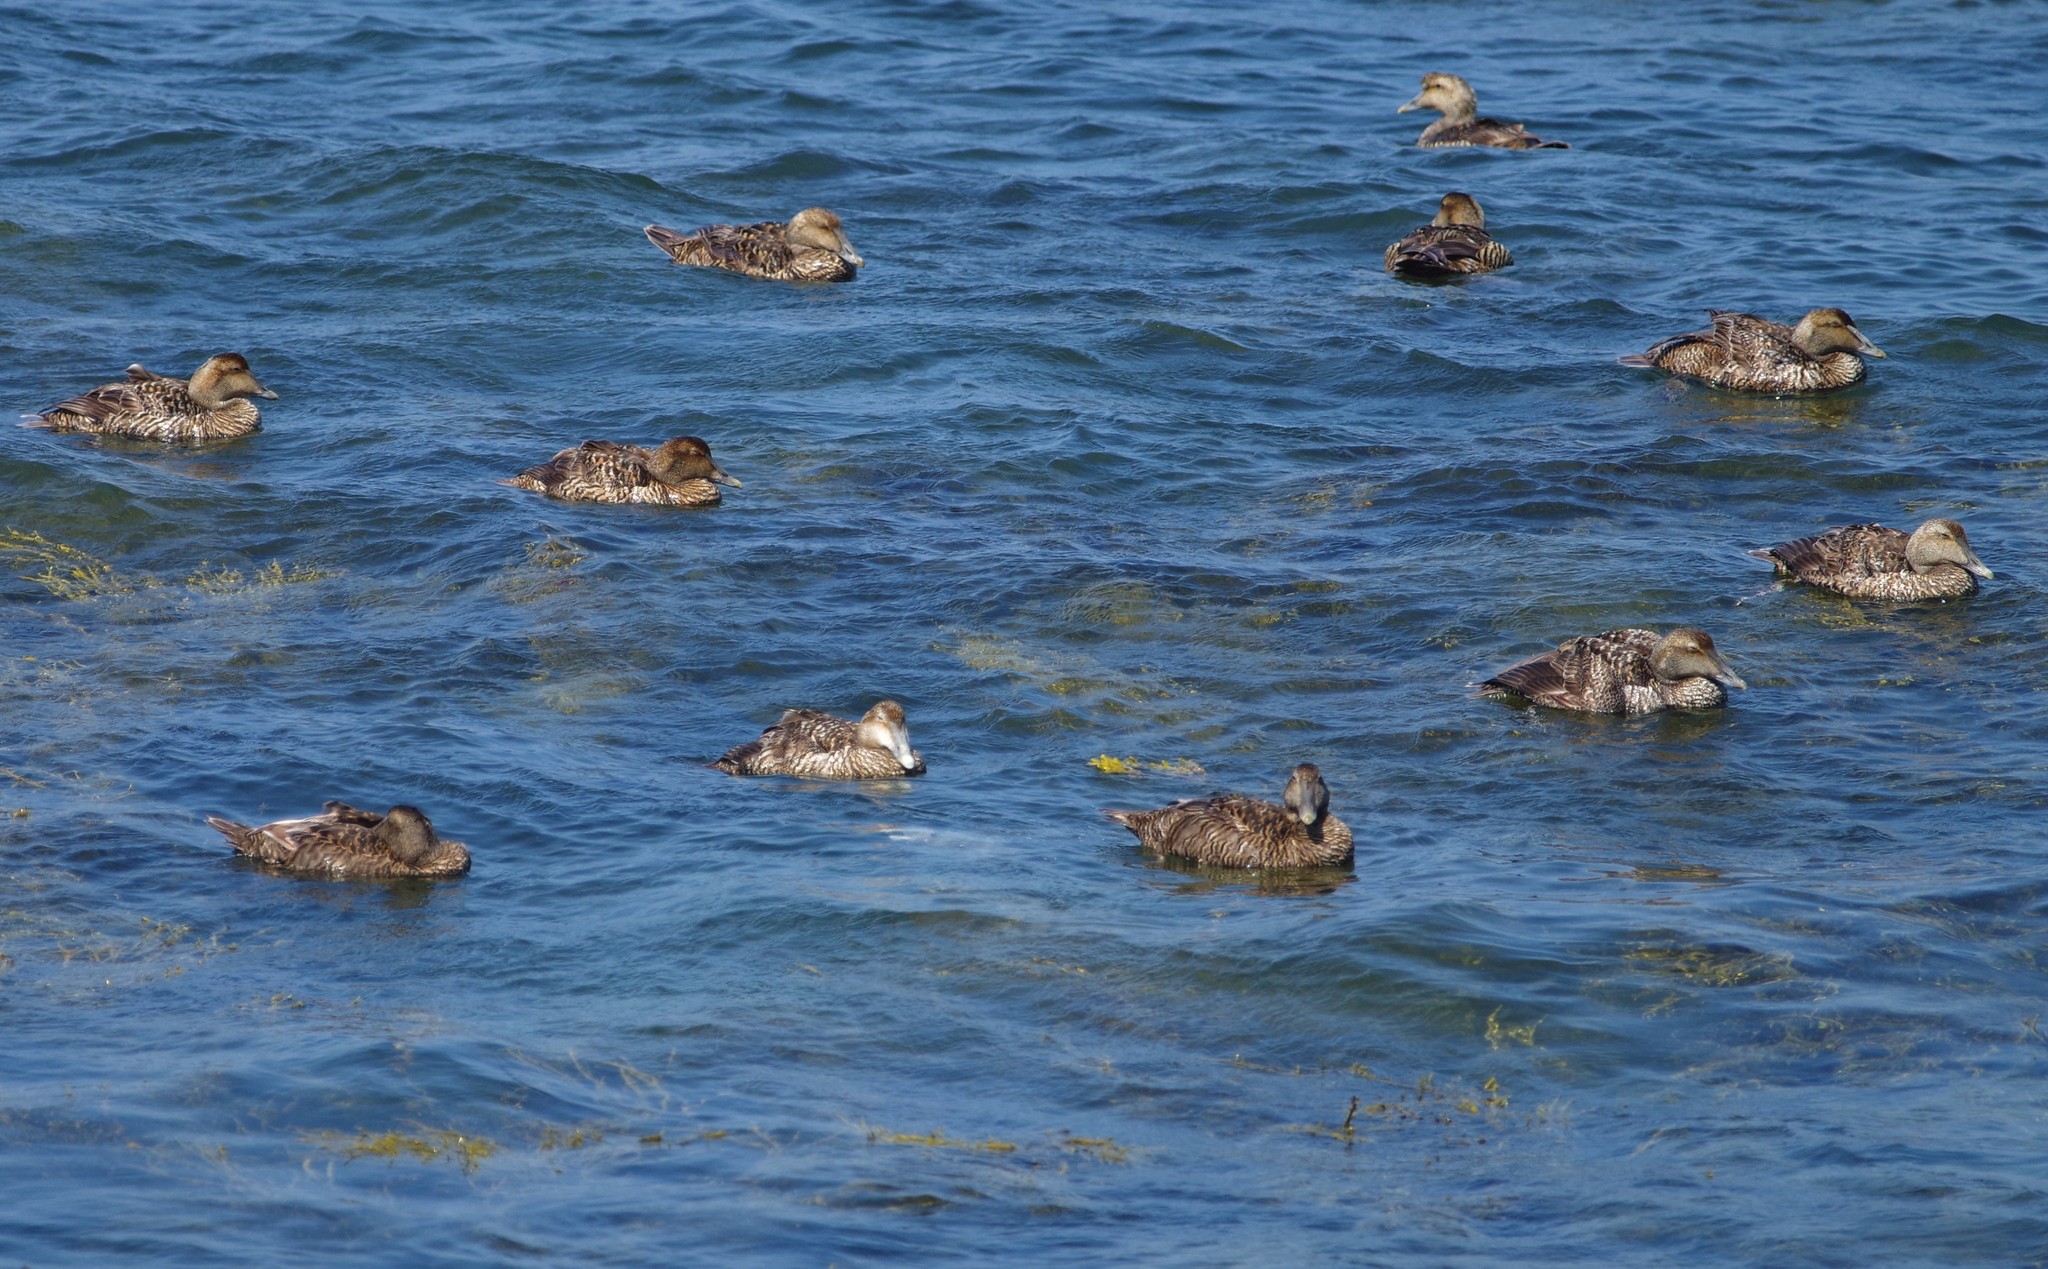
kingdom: Animalia
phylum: Chordata
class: Aves
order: Anseriformes
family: Anatidae
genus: Somateria
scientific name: Somateria mollissima
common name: Common eider
